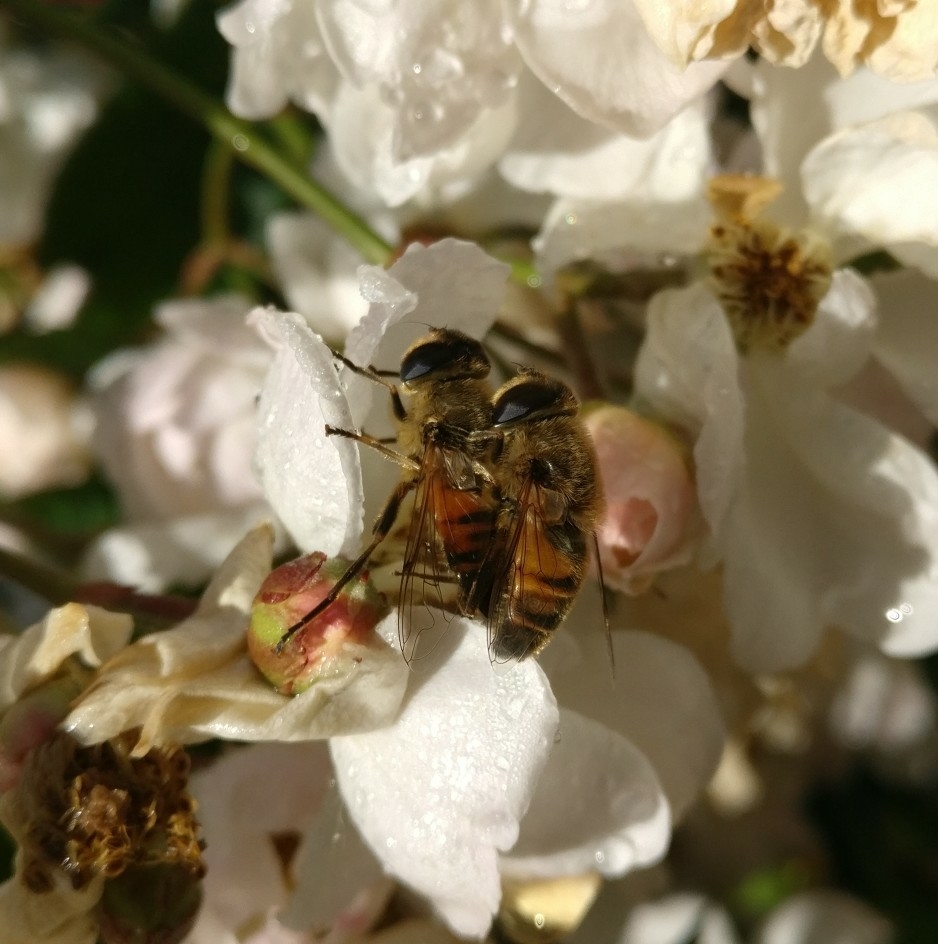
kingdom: Animalia
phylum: Arthropoda
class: Insecta
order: Diptera
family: Syrphidae
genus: Eristalis
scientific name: Eristalis tenax
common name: Drone fly
